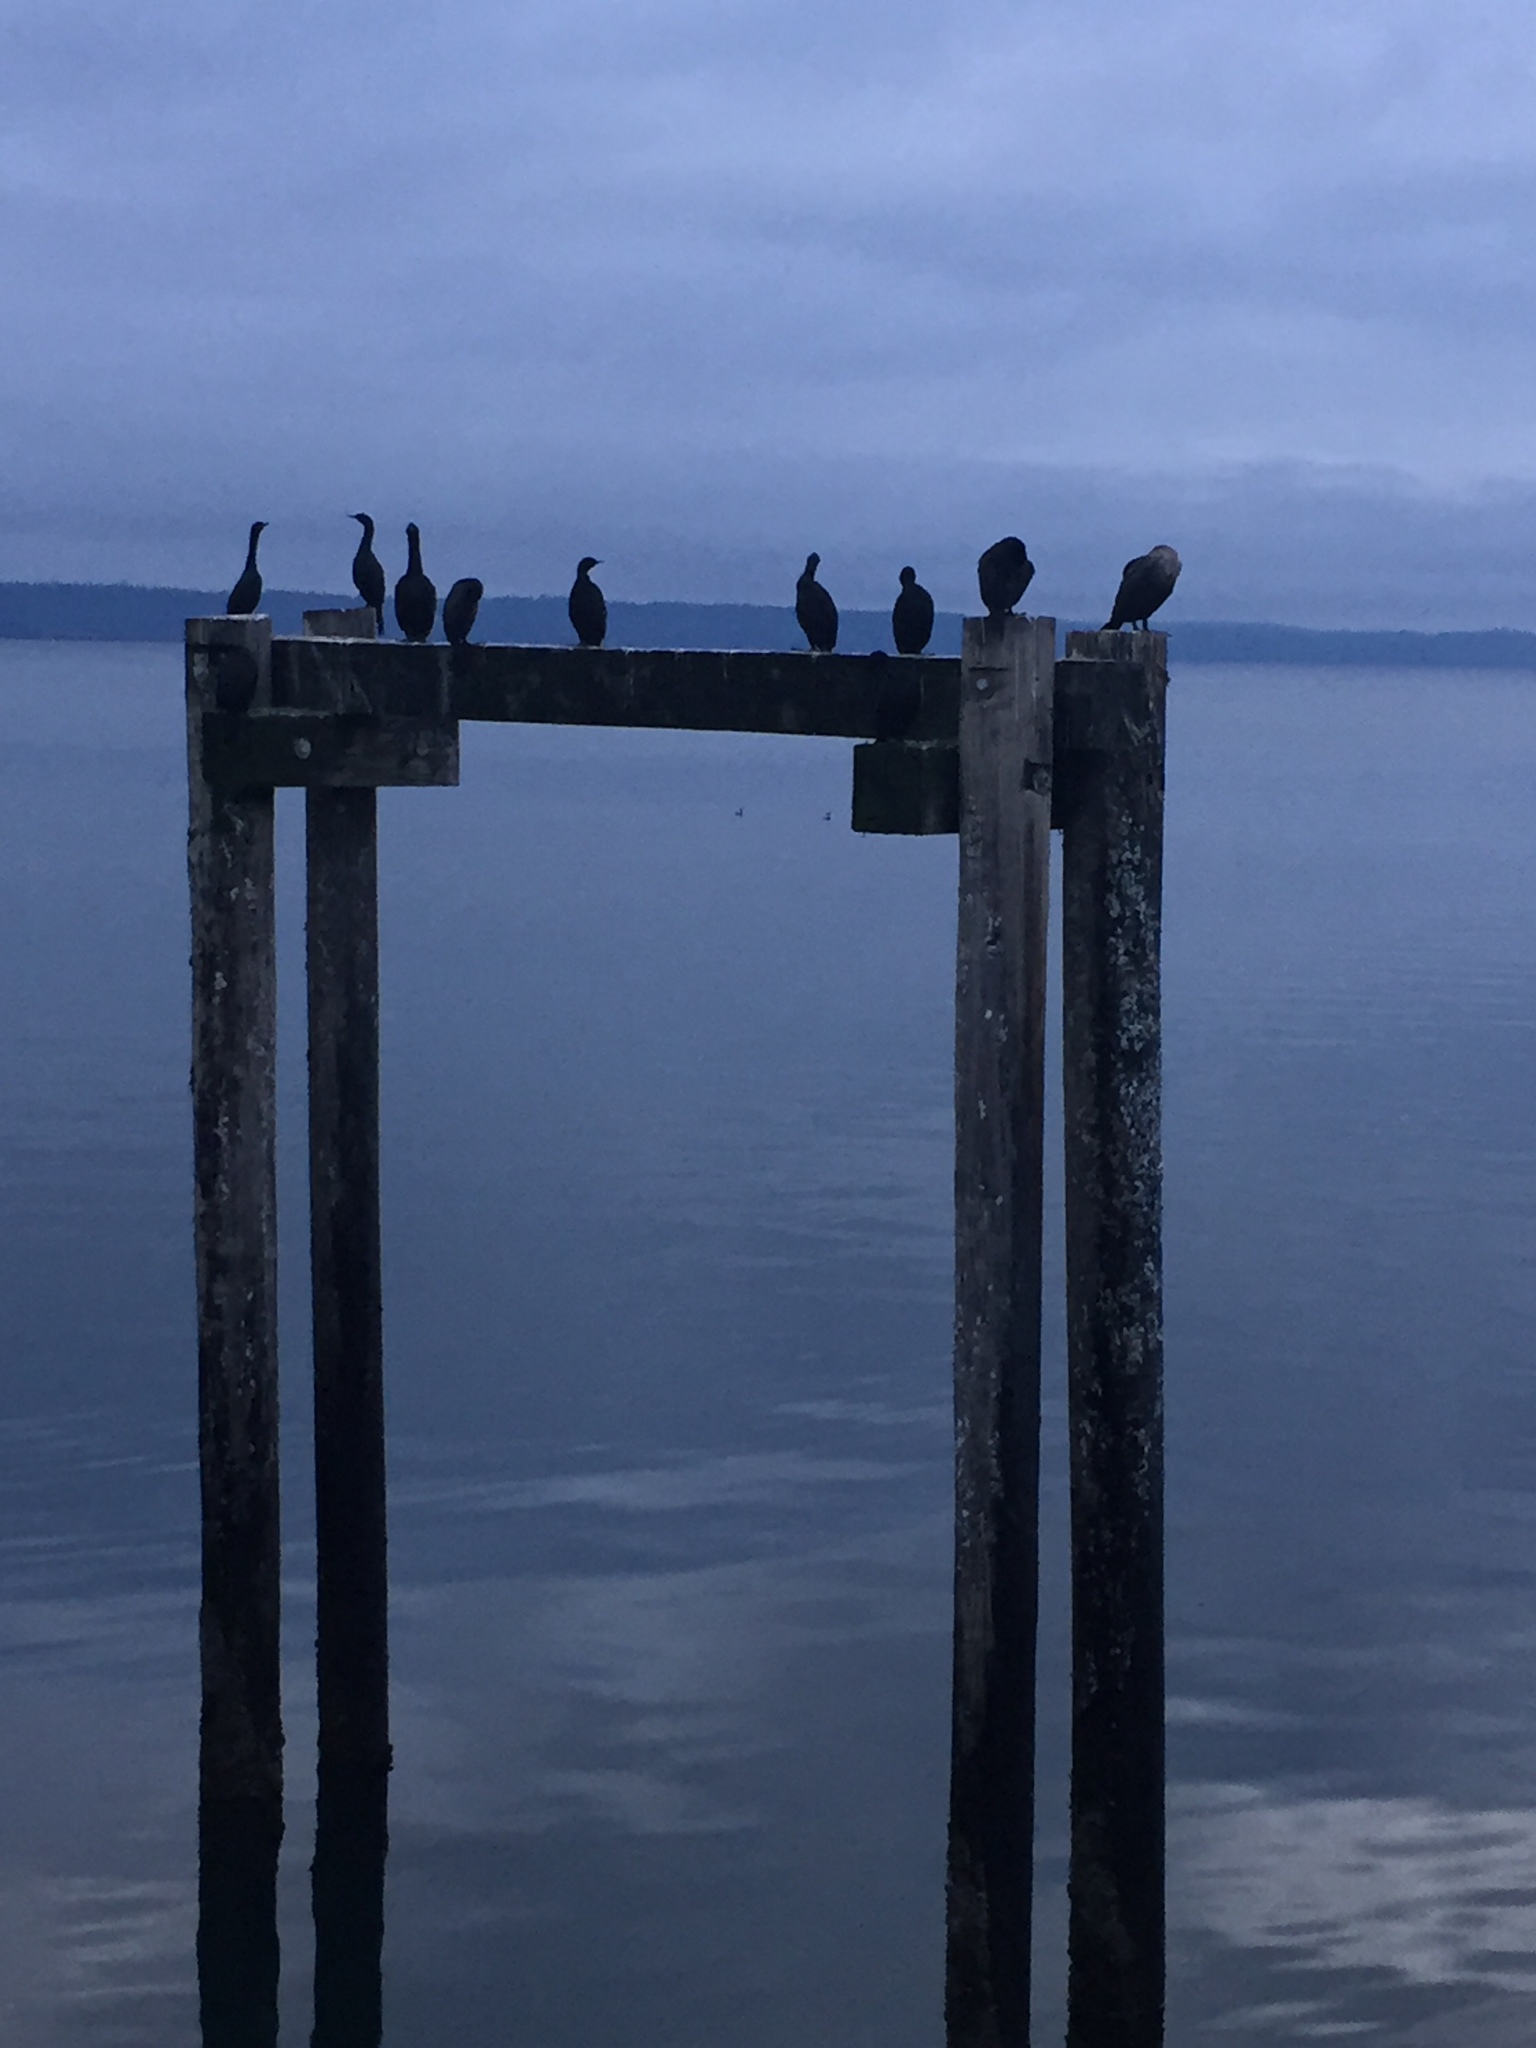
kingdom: Animalia
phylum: Chordata
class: Aves
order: Suliformes
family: Phalacrocoracidae
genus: Phalacrocorax
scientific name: Phalacrocorax pelagicus
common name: Pelagic cormorant
